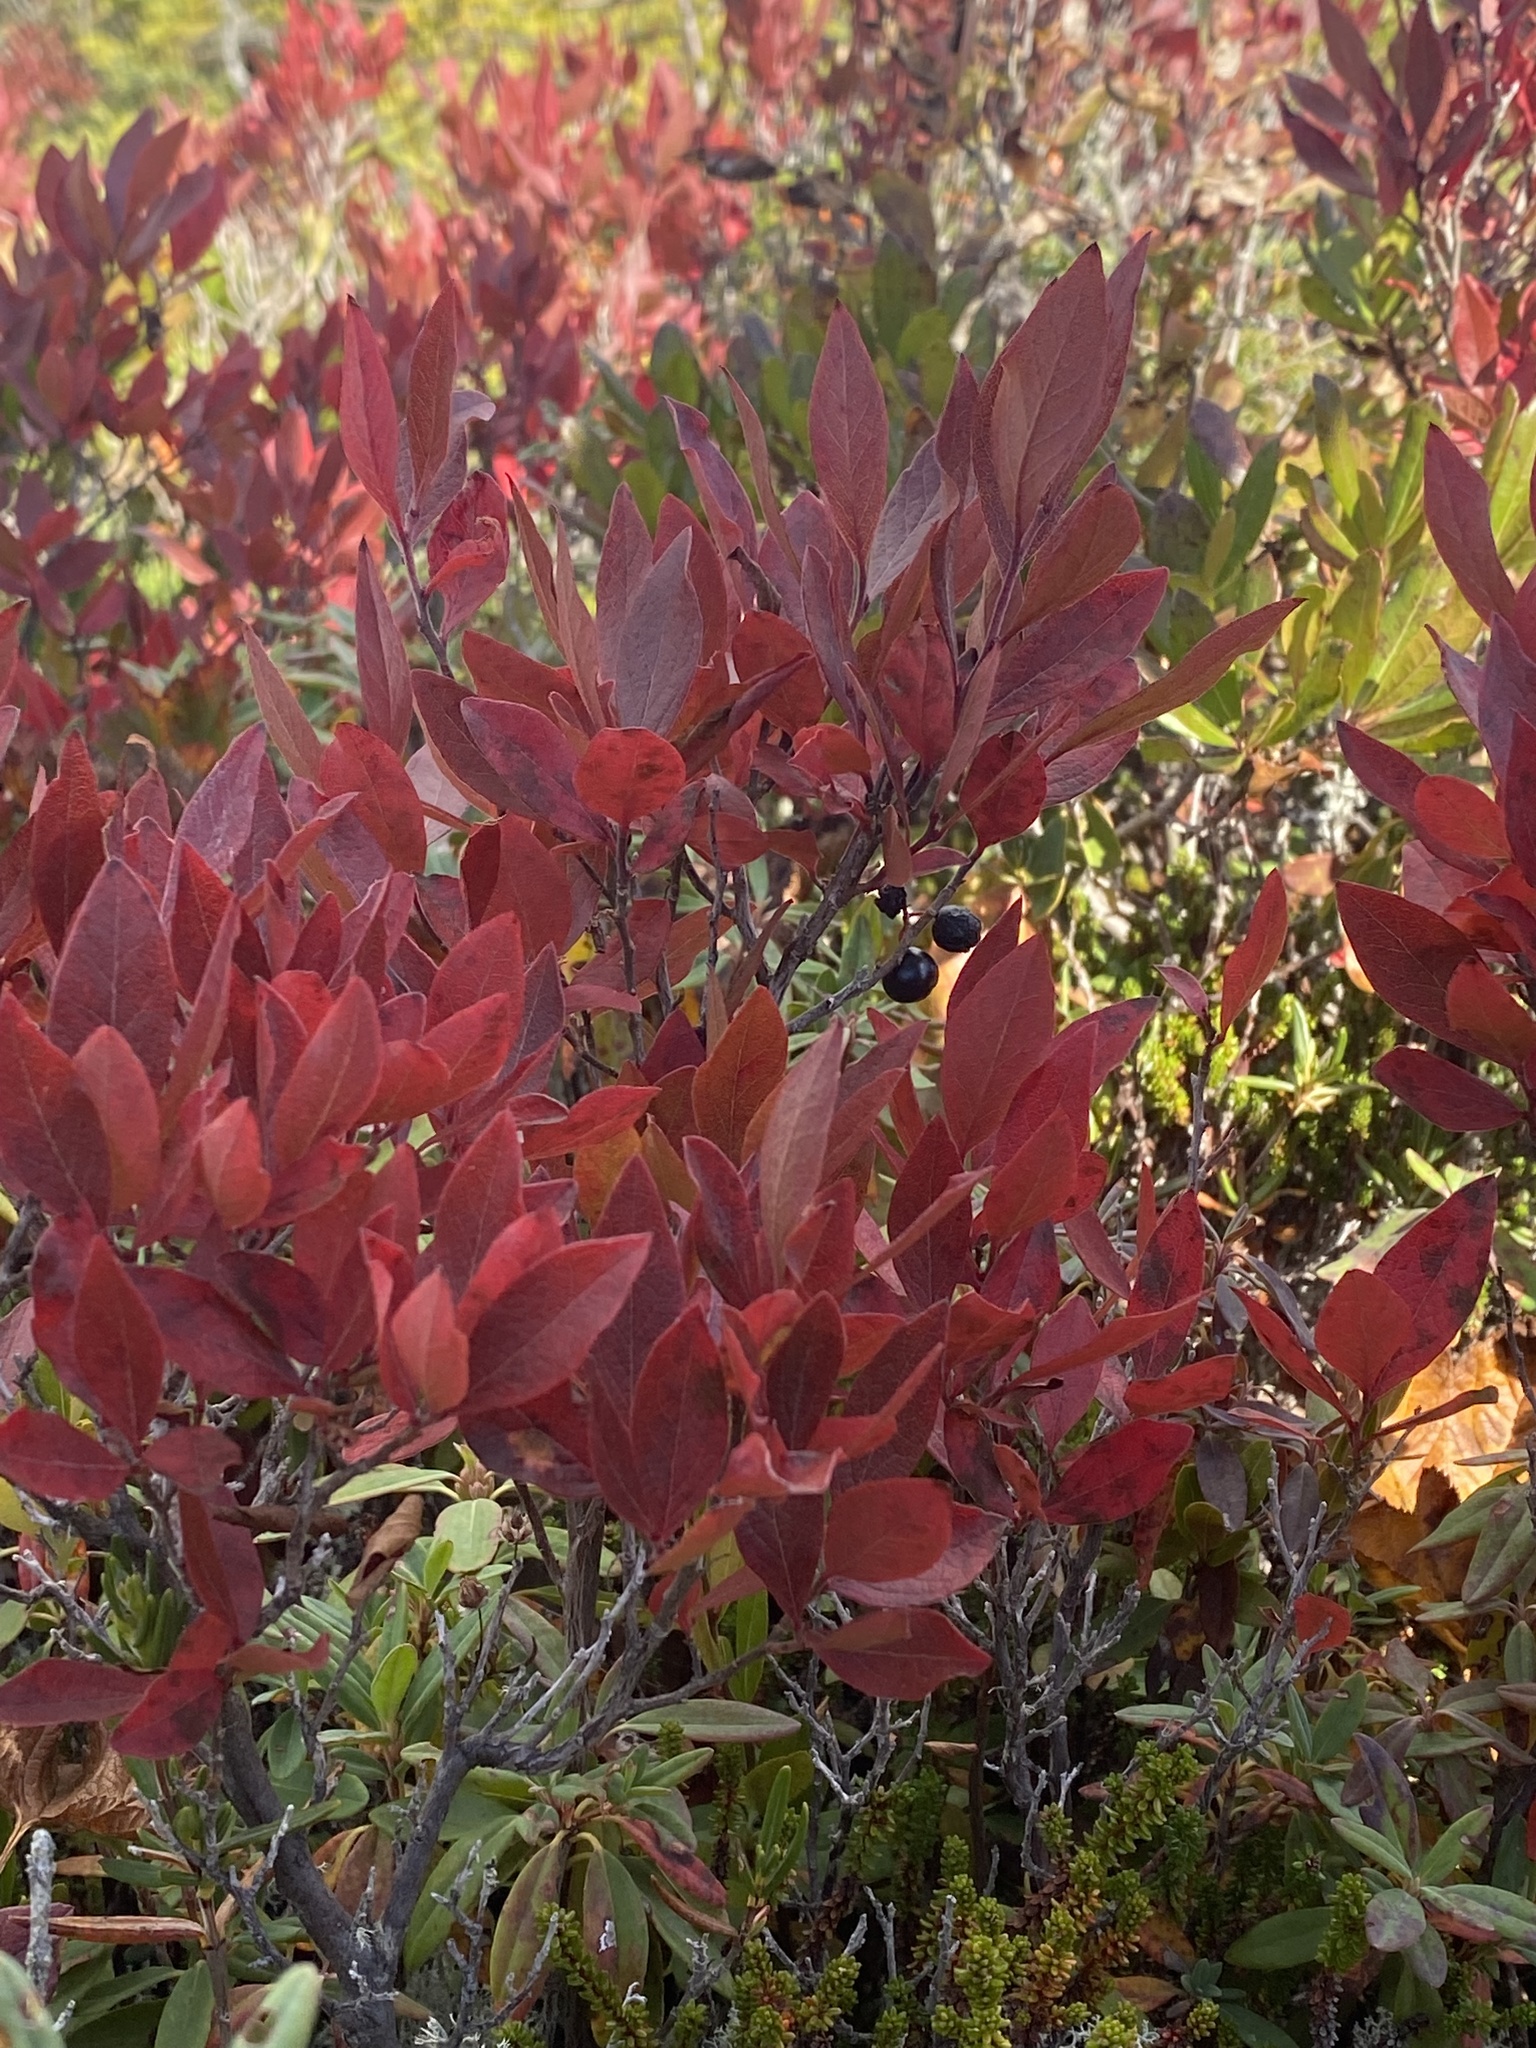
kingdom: Plantae
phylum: Tracheophyta
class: Magnoliopsida
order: Ericales
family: Ericaceae
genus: Gaylussacia
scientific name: Gaylussacia baccata
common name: Black huckleberry
